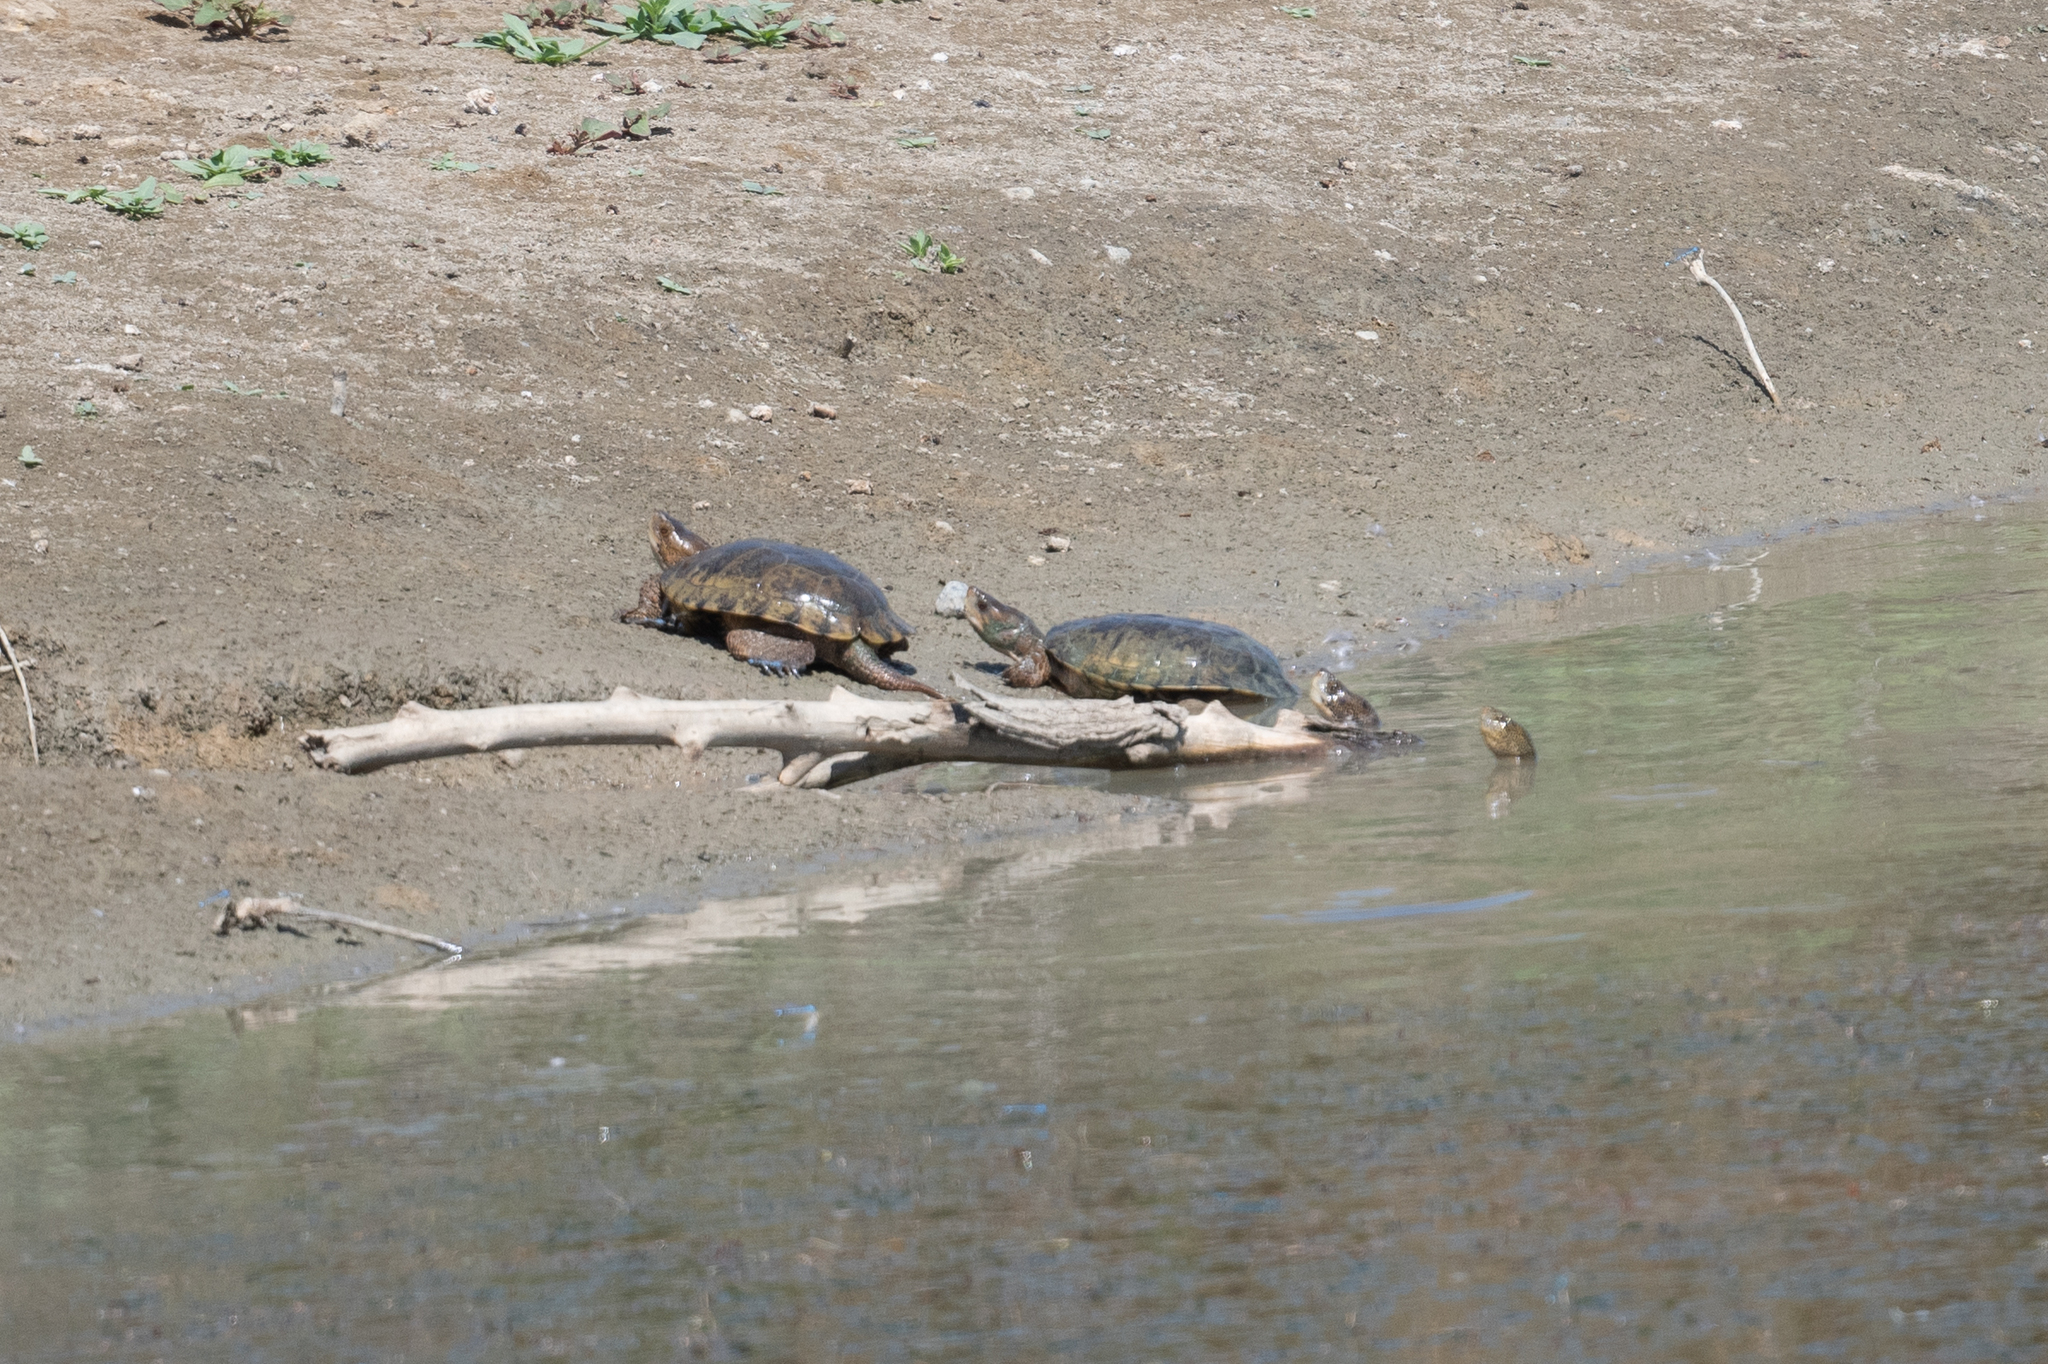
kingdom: Animalia
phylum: Chordata
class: Testudines
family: Emydidae
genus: Actinemys
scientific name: Actinemys marmorata
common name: Western pond turtle
